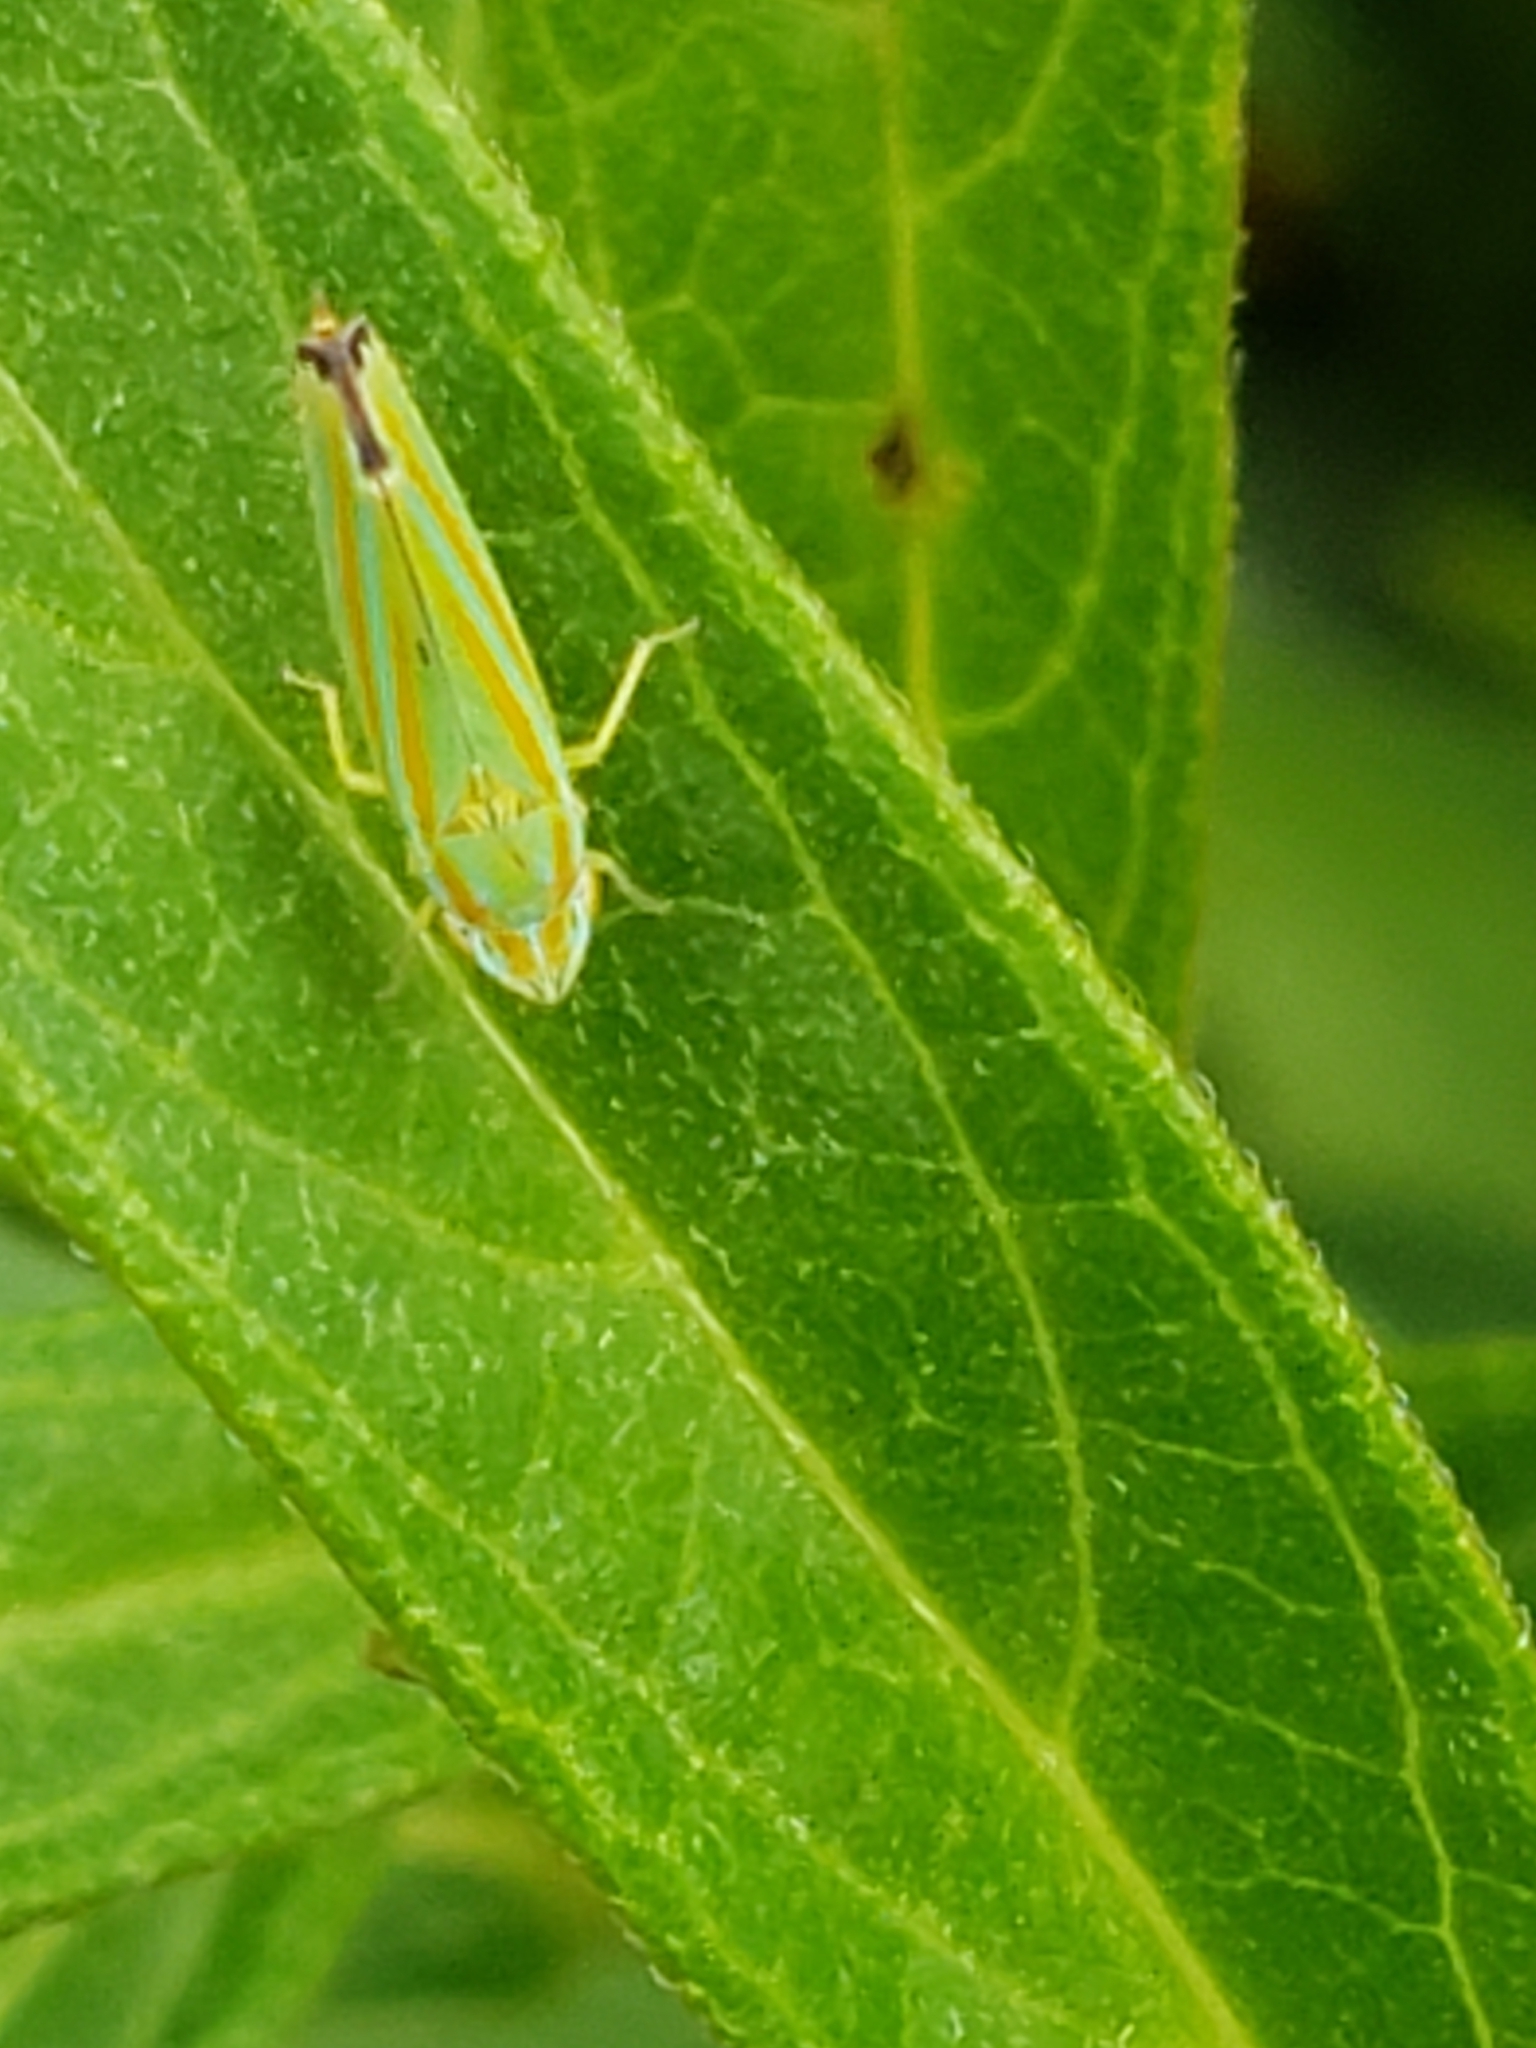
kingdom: Animalia
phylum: Arthropoda
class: Insecta
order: Hemiptera
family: Cicadellidae
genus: Graphocephala
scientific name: Graphocephala versuta
